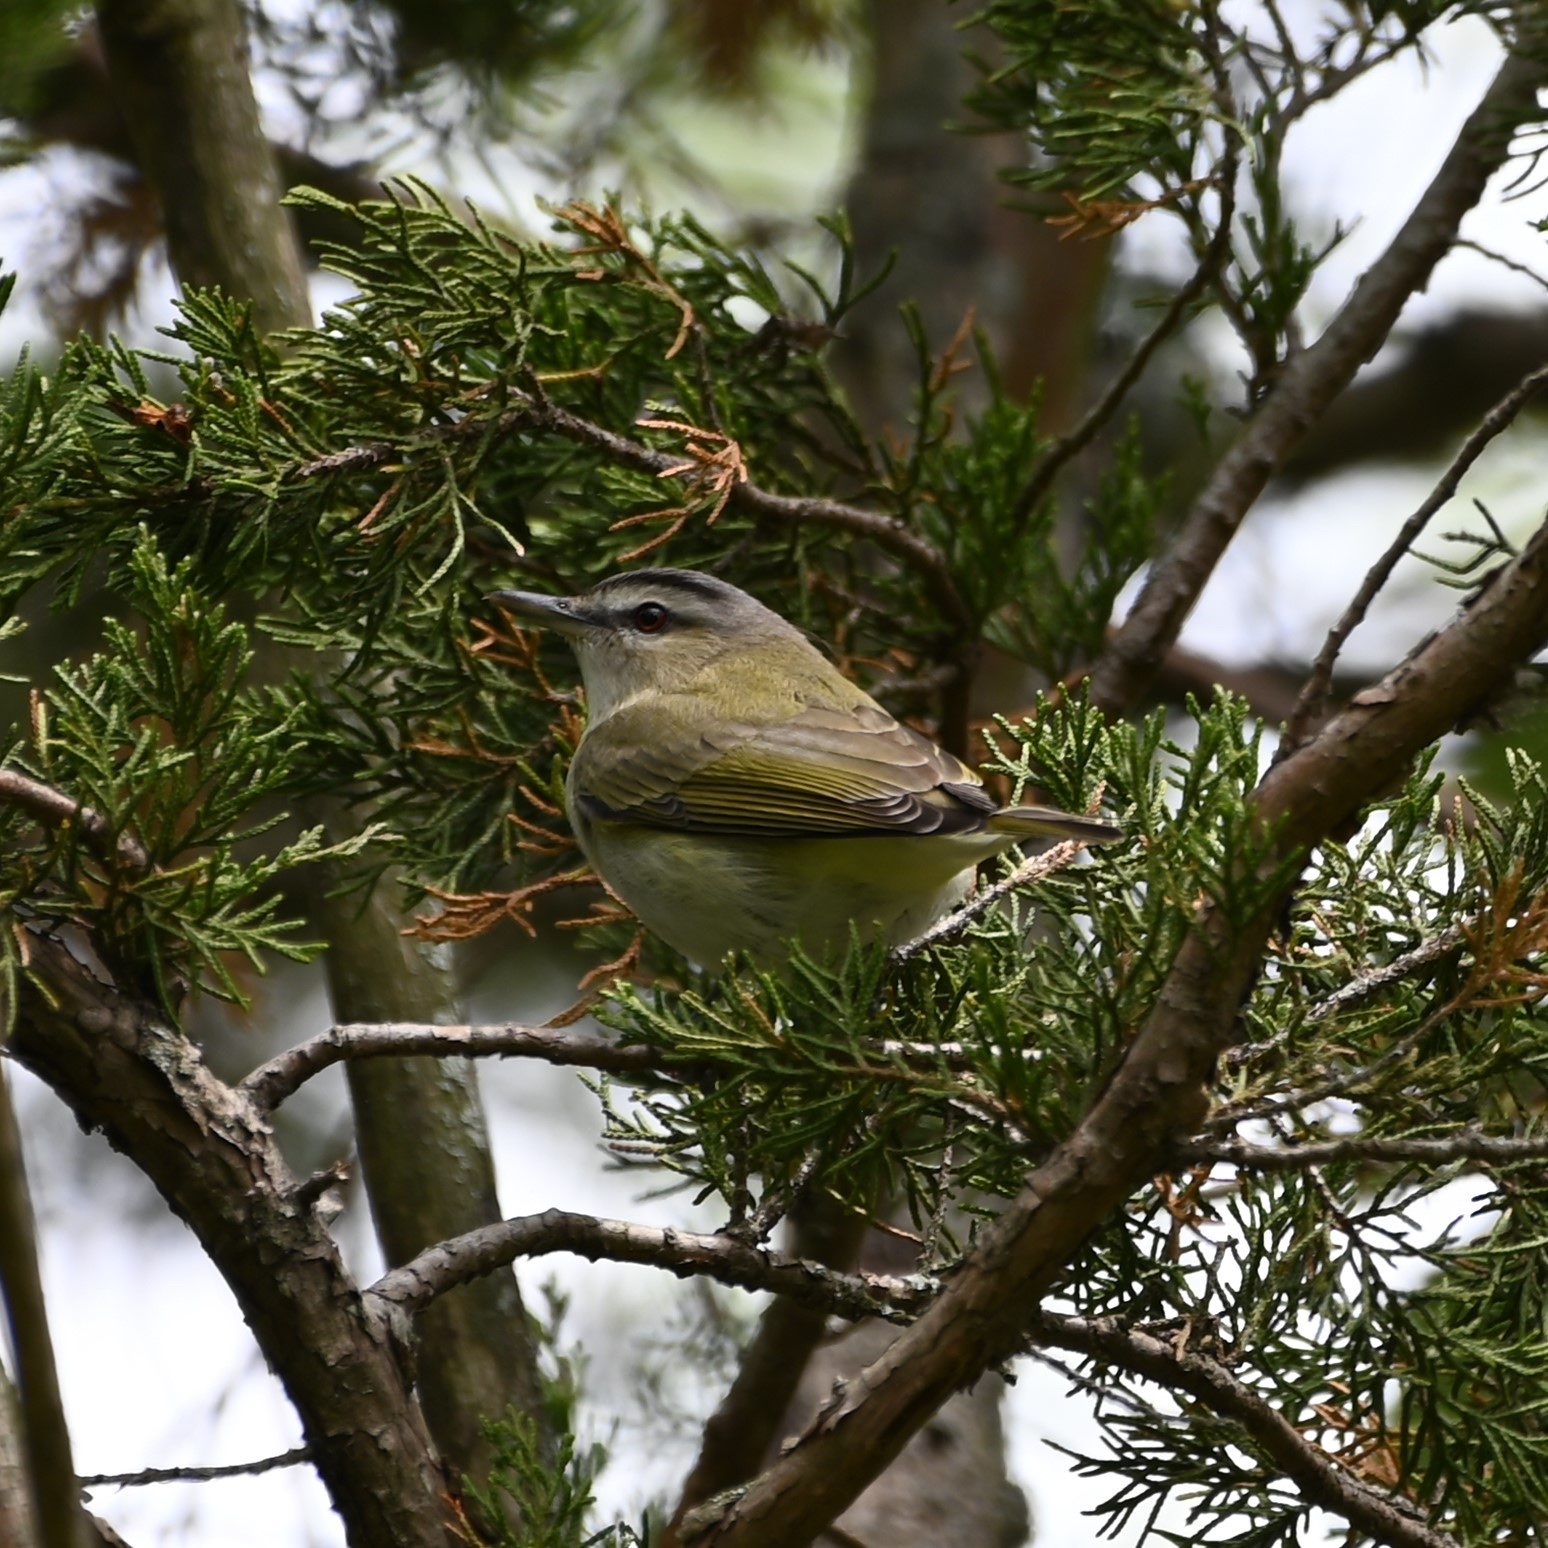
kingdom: Animalia
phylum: Chordata
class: Aves
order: Passeriformes
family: Vireonidae
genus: Vireo
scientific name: Vireo olivaceus
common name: Red-eyed vireo
